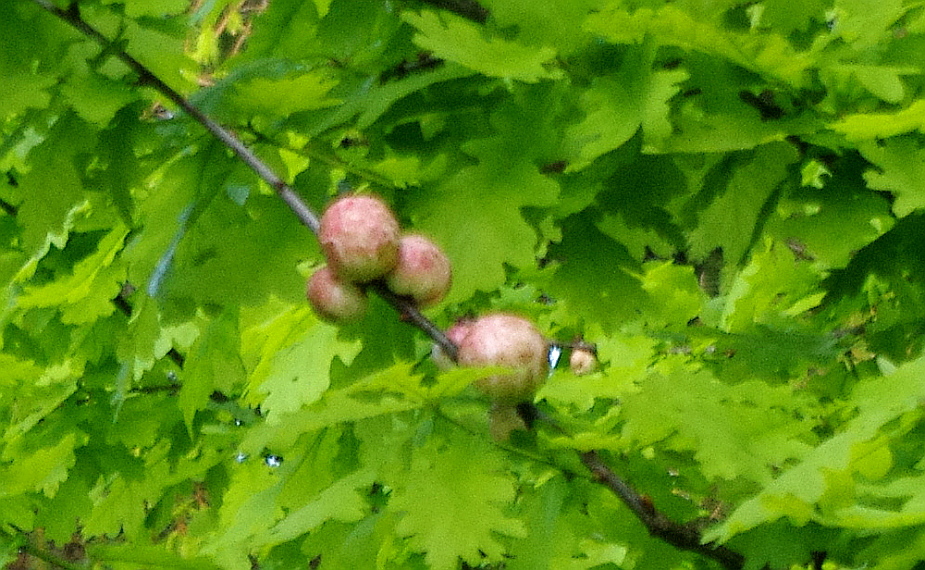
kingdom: Animalia
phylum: Arthropoda
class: Insecta
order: Hymenoptera
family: Cynipidae
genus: Biorhiza
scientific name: Biorhiza pallida
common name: Oak apple
